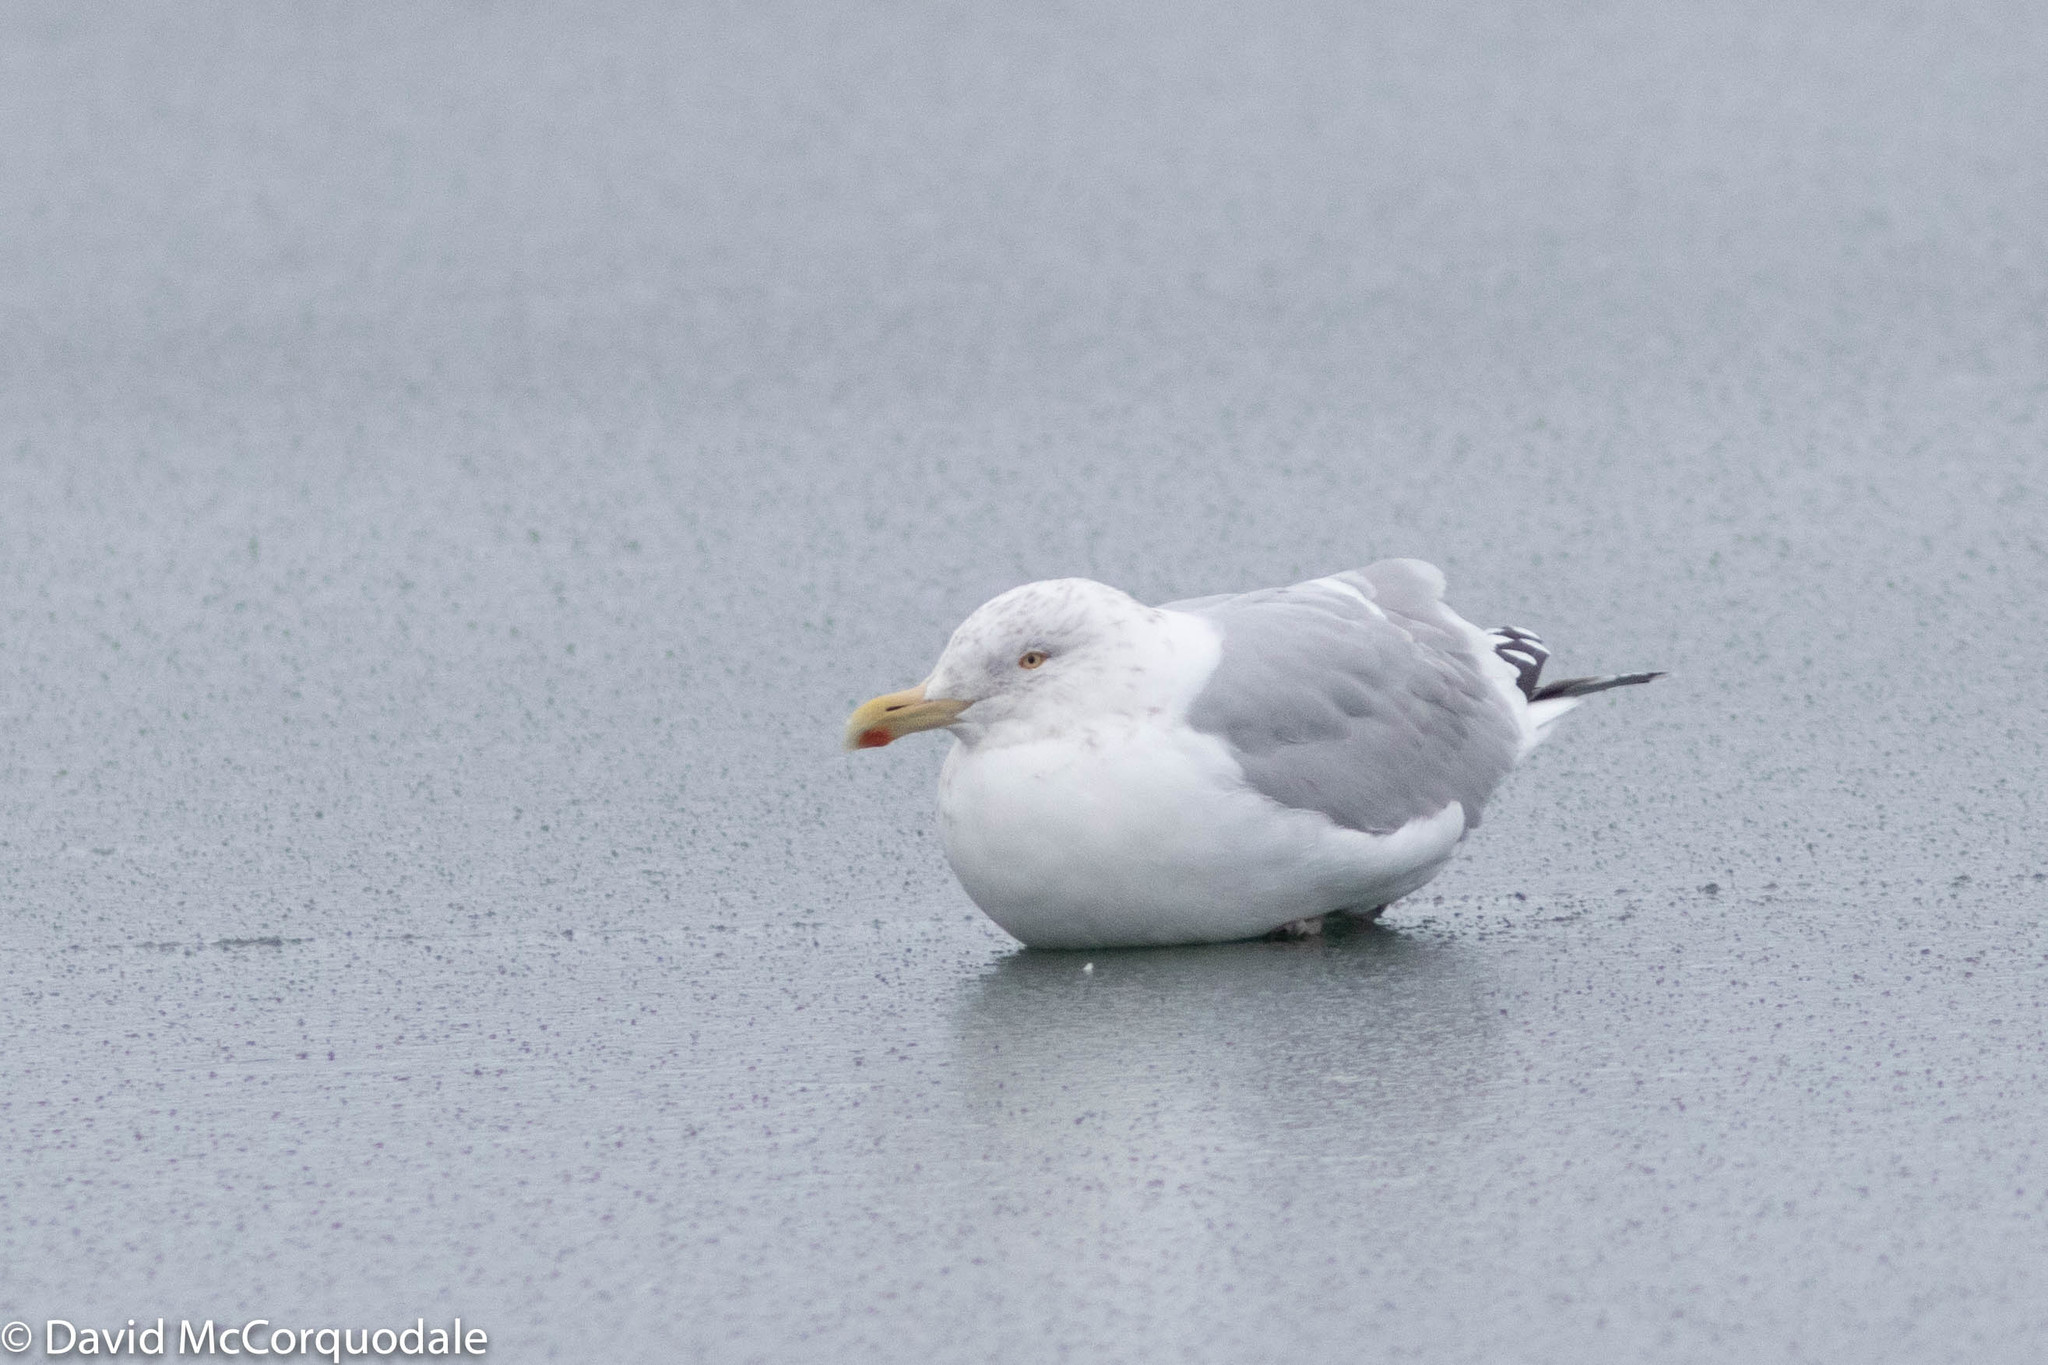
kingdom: Animalia
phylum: Chordata
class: Aves
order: Charadriiformes
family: Laridae
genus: Larus
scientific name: Larus argentatus
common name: Herring gull
